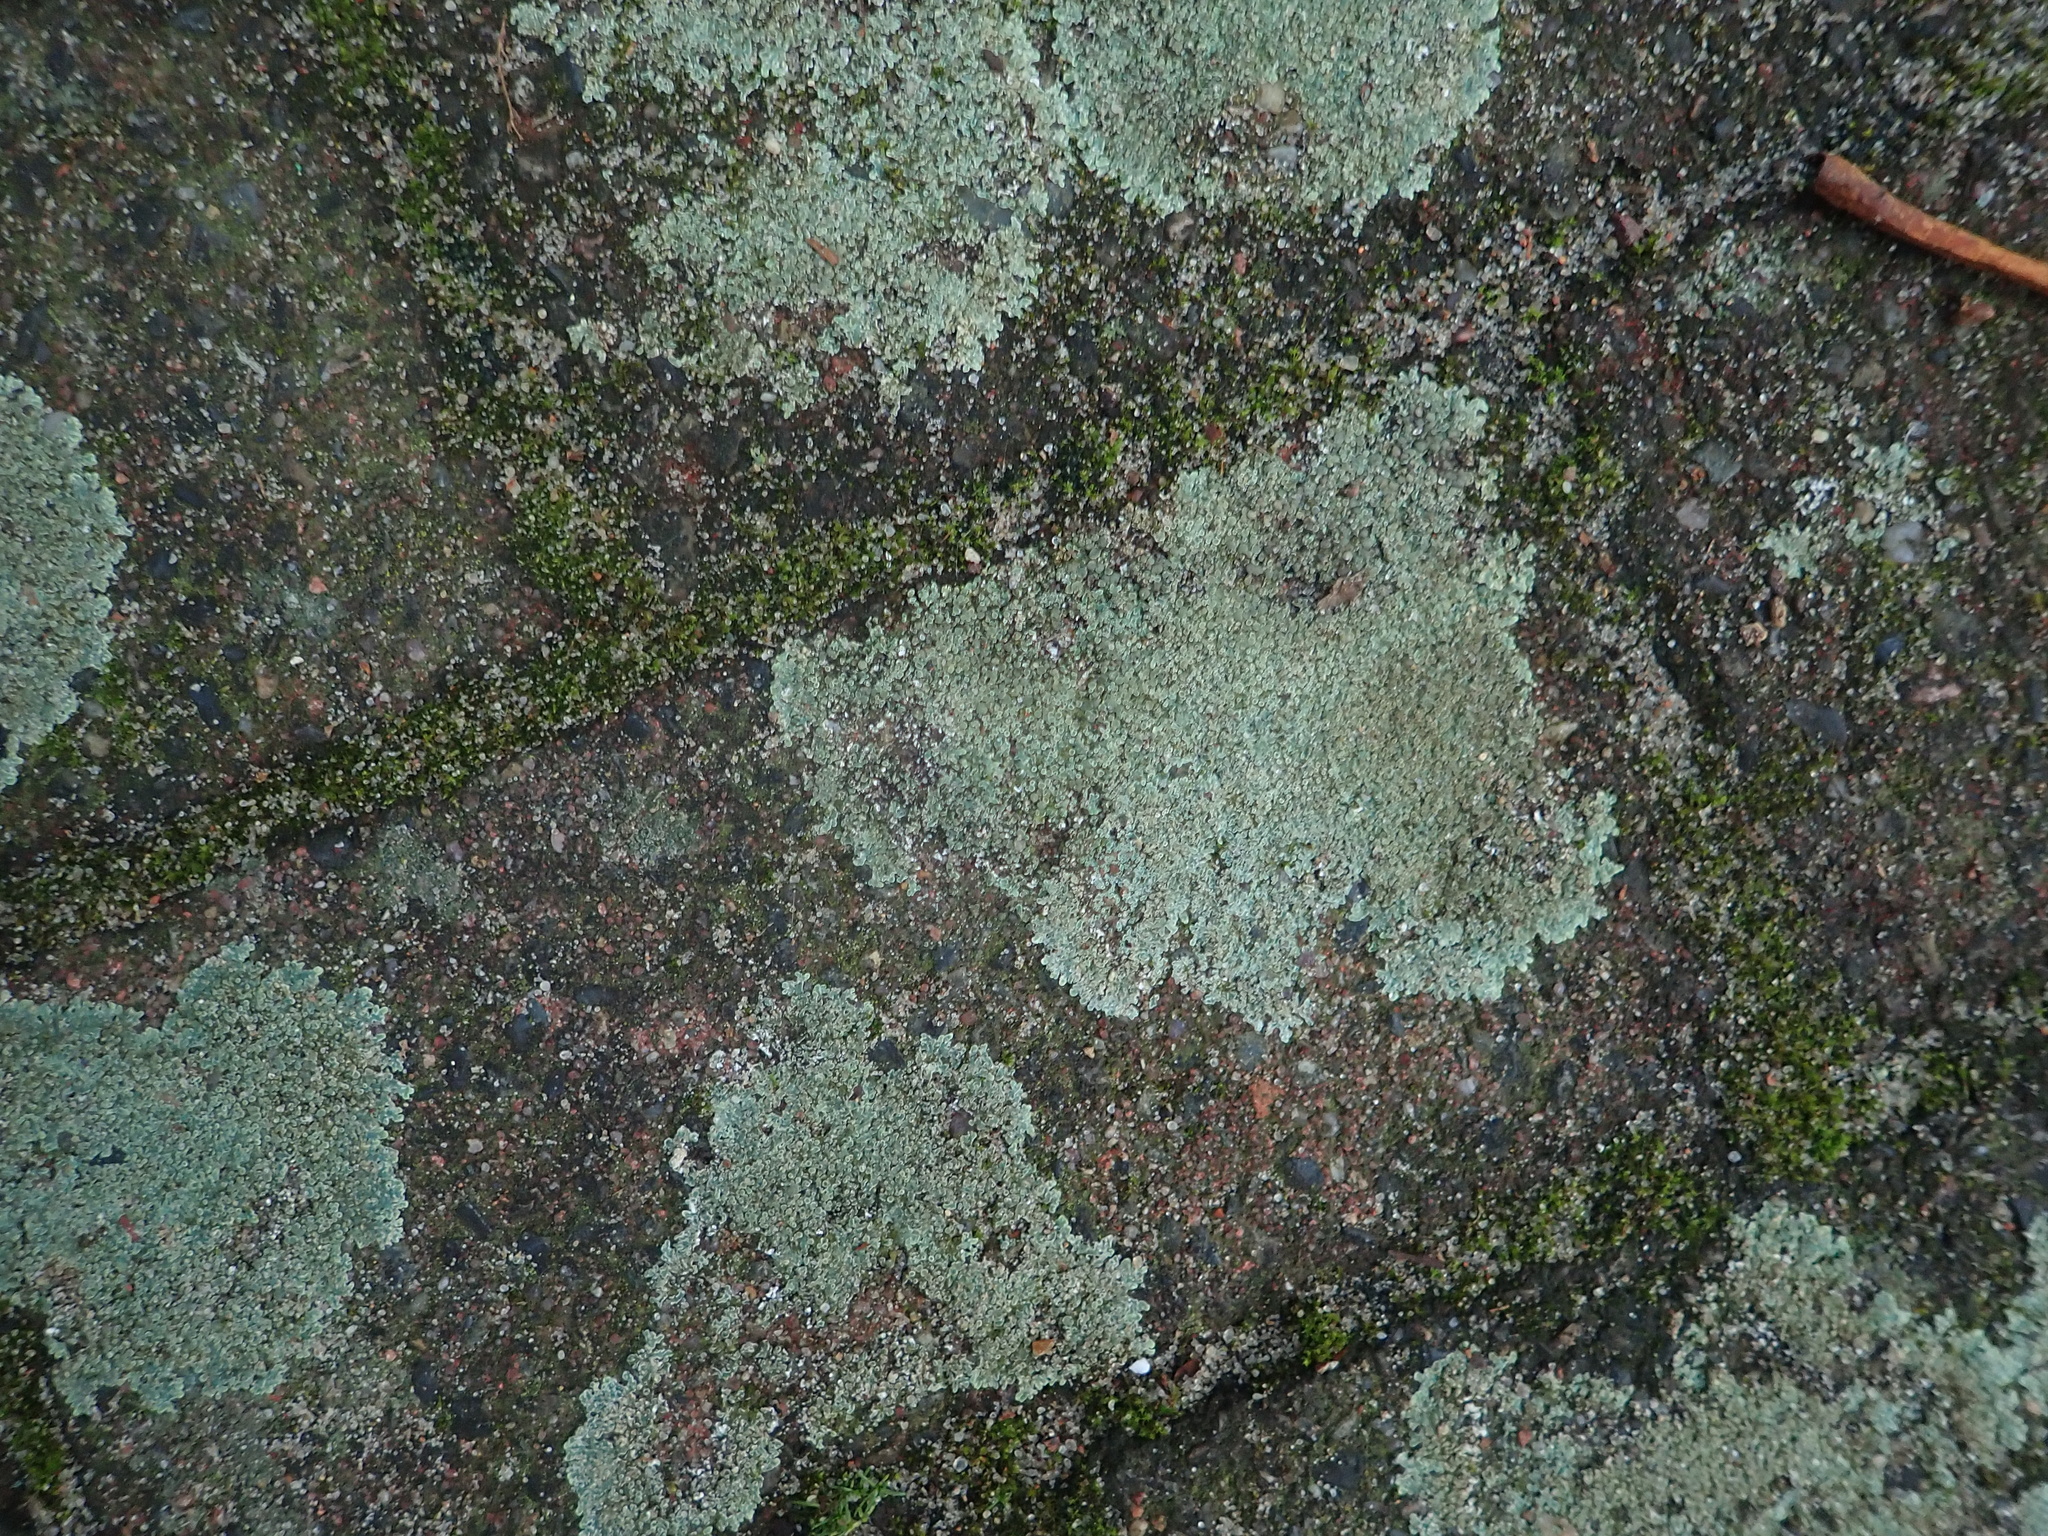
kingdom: Fungi
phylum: Ascomycota
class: Lecanoromycetes
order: Lecanorales
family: Lecanoraceae
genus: Protoparmeliopsis
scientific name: Protoparmeliopsis muralis
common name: Stonewall rim lichen
